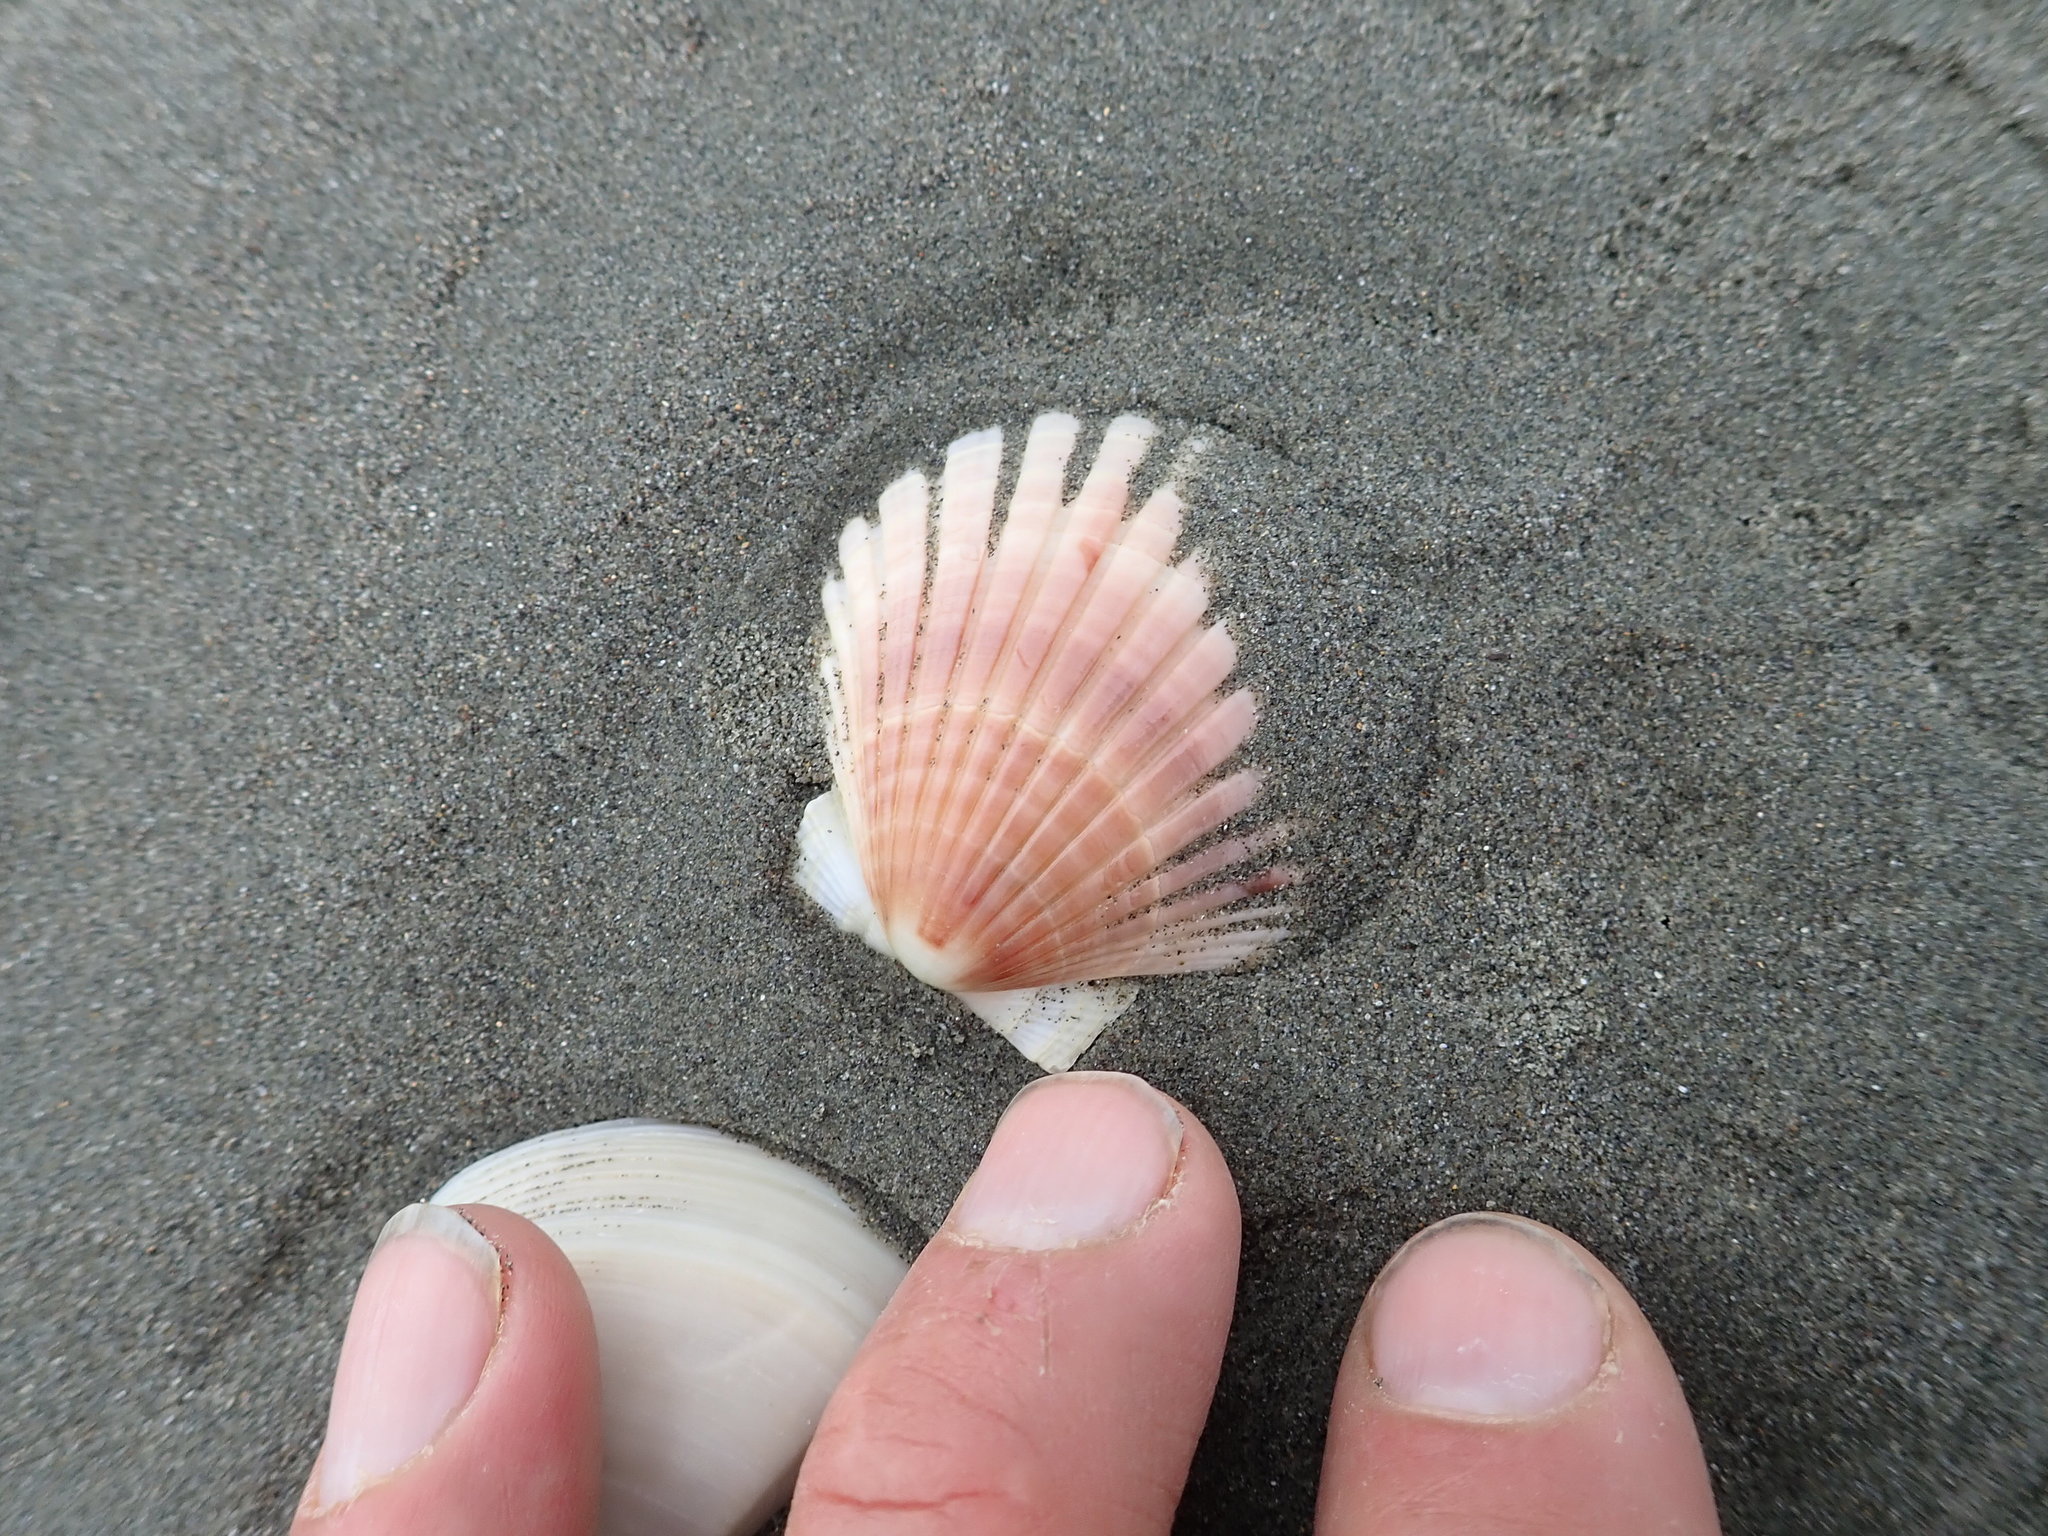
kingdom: Animalia
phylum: Mollusca
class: Bivalvia
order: Pectinida
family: Pectinidae
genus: Pecten
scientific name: Pecten novaezelandiae
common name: New zealand scallop
